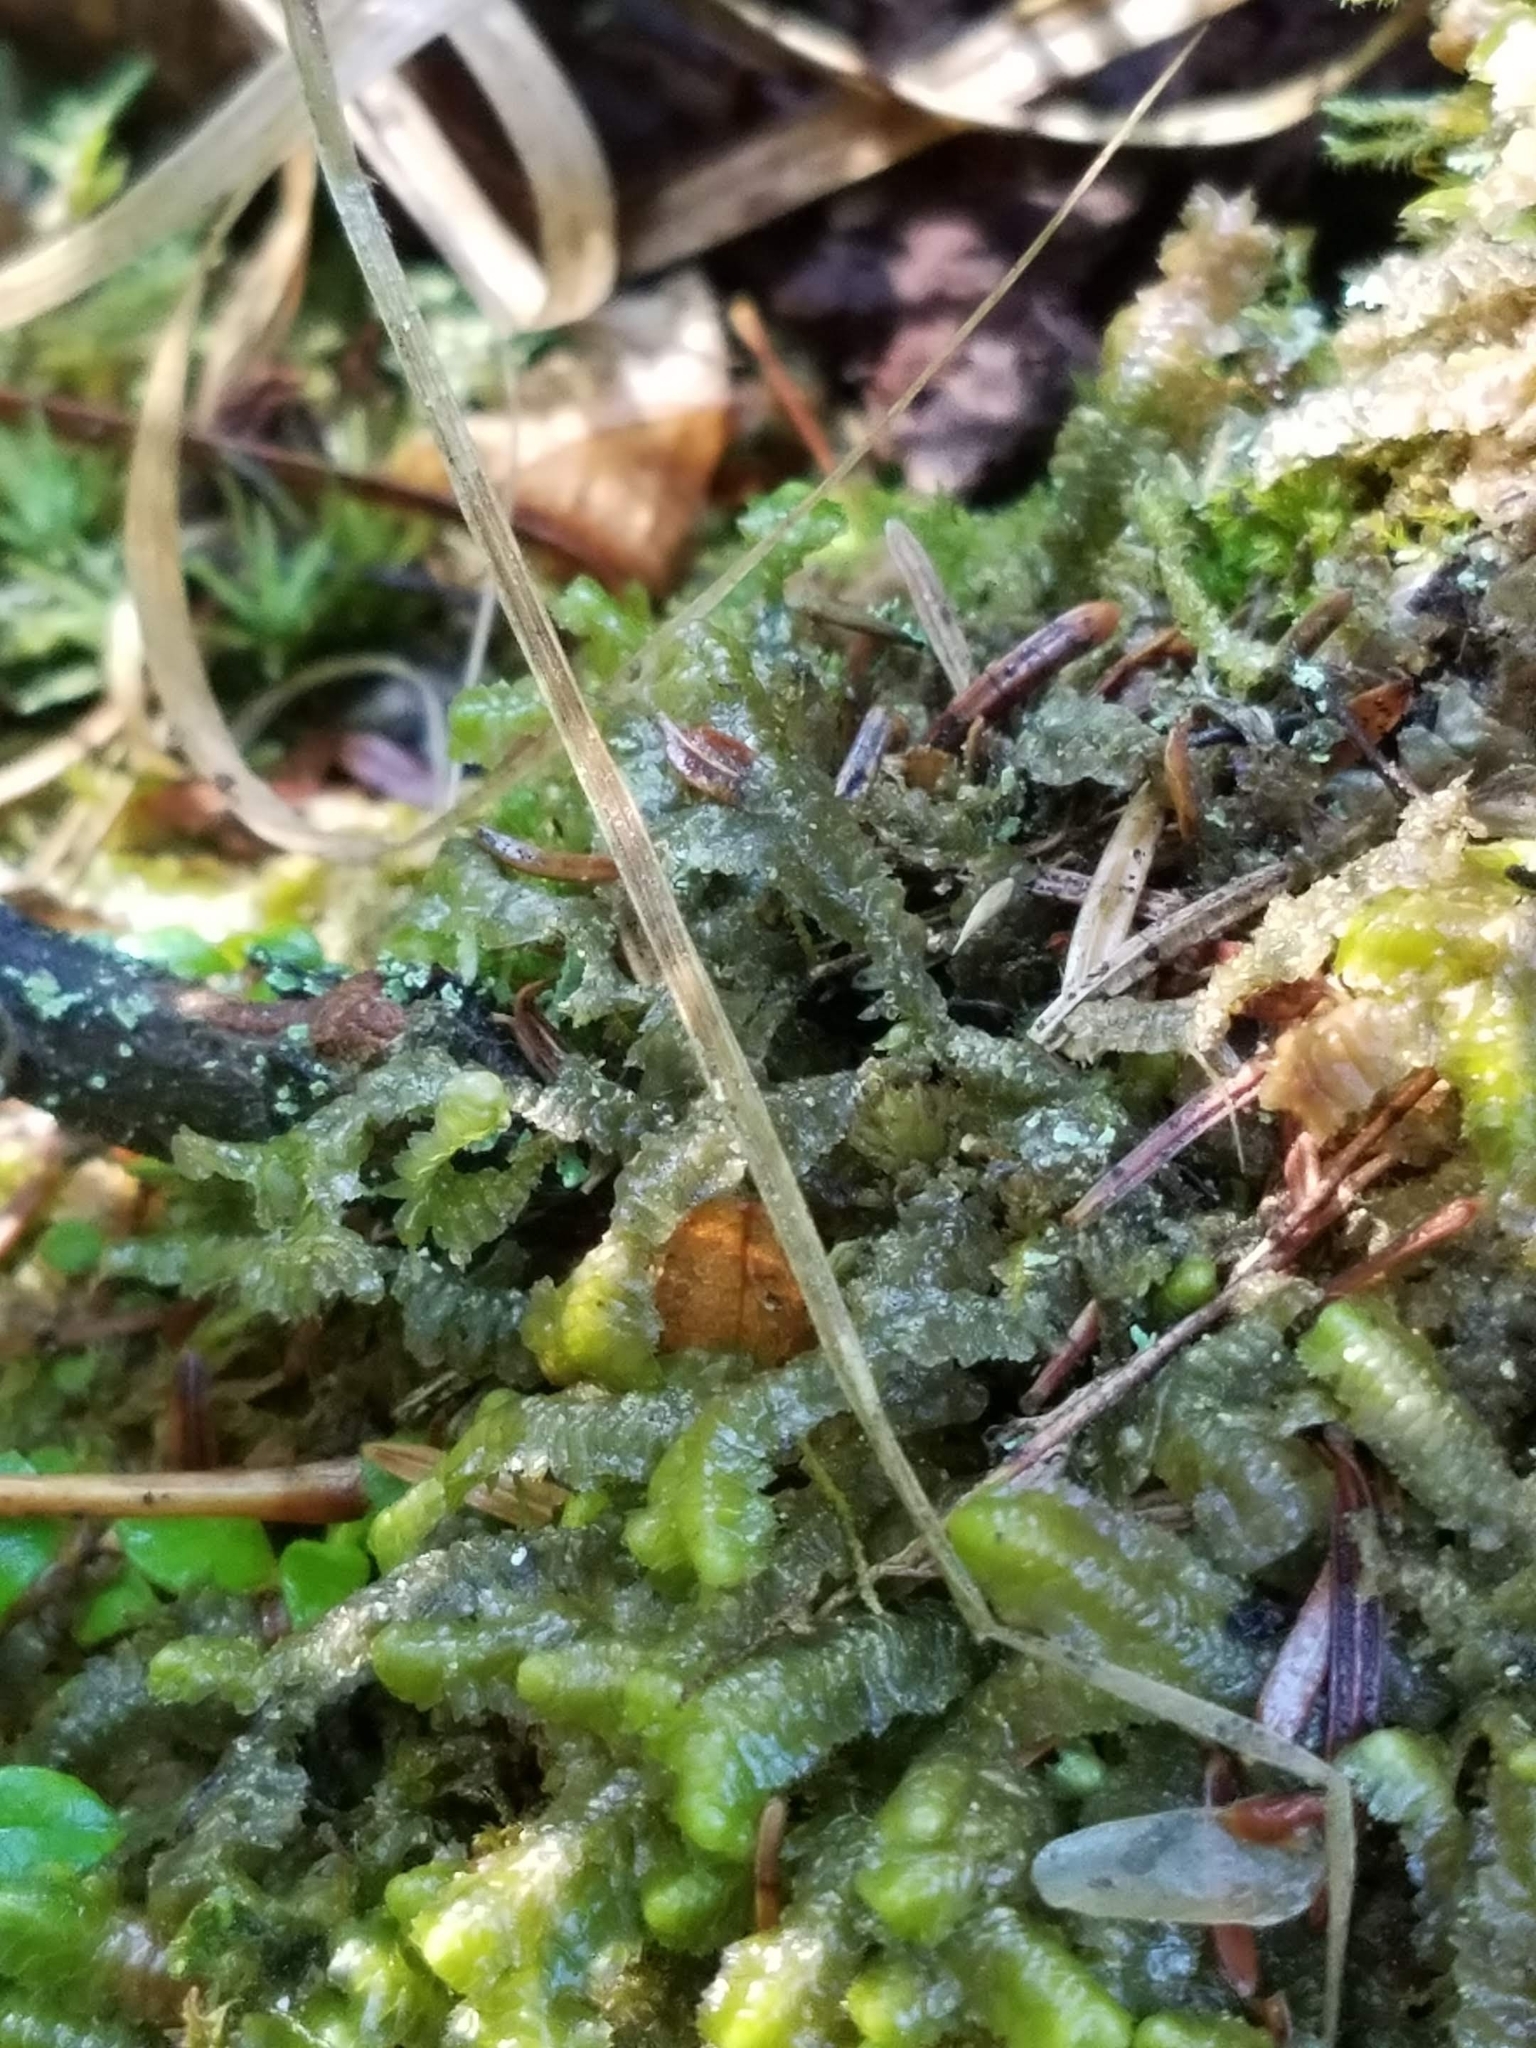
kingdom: Plantae
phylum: Marchantiophyta
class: Jungermanniopsida
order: Jungermanniales
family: Lepidoziaceae
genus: Bazzania
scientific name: Bazzania trilobata
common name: Three-lobed whipwort
